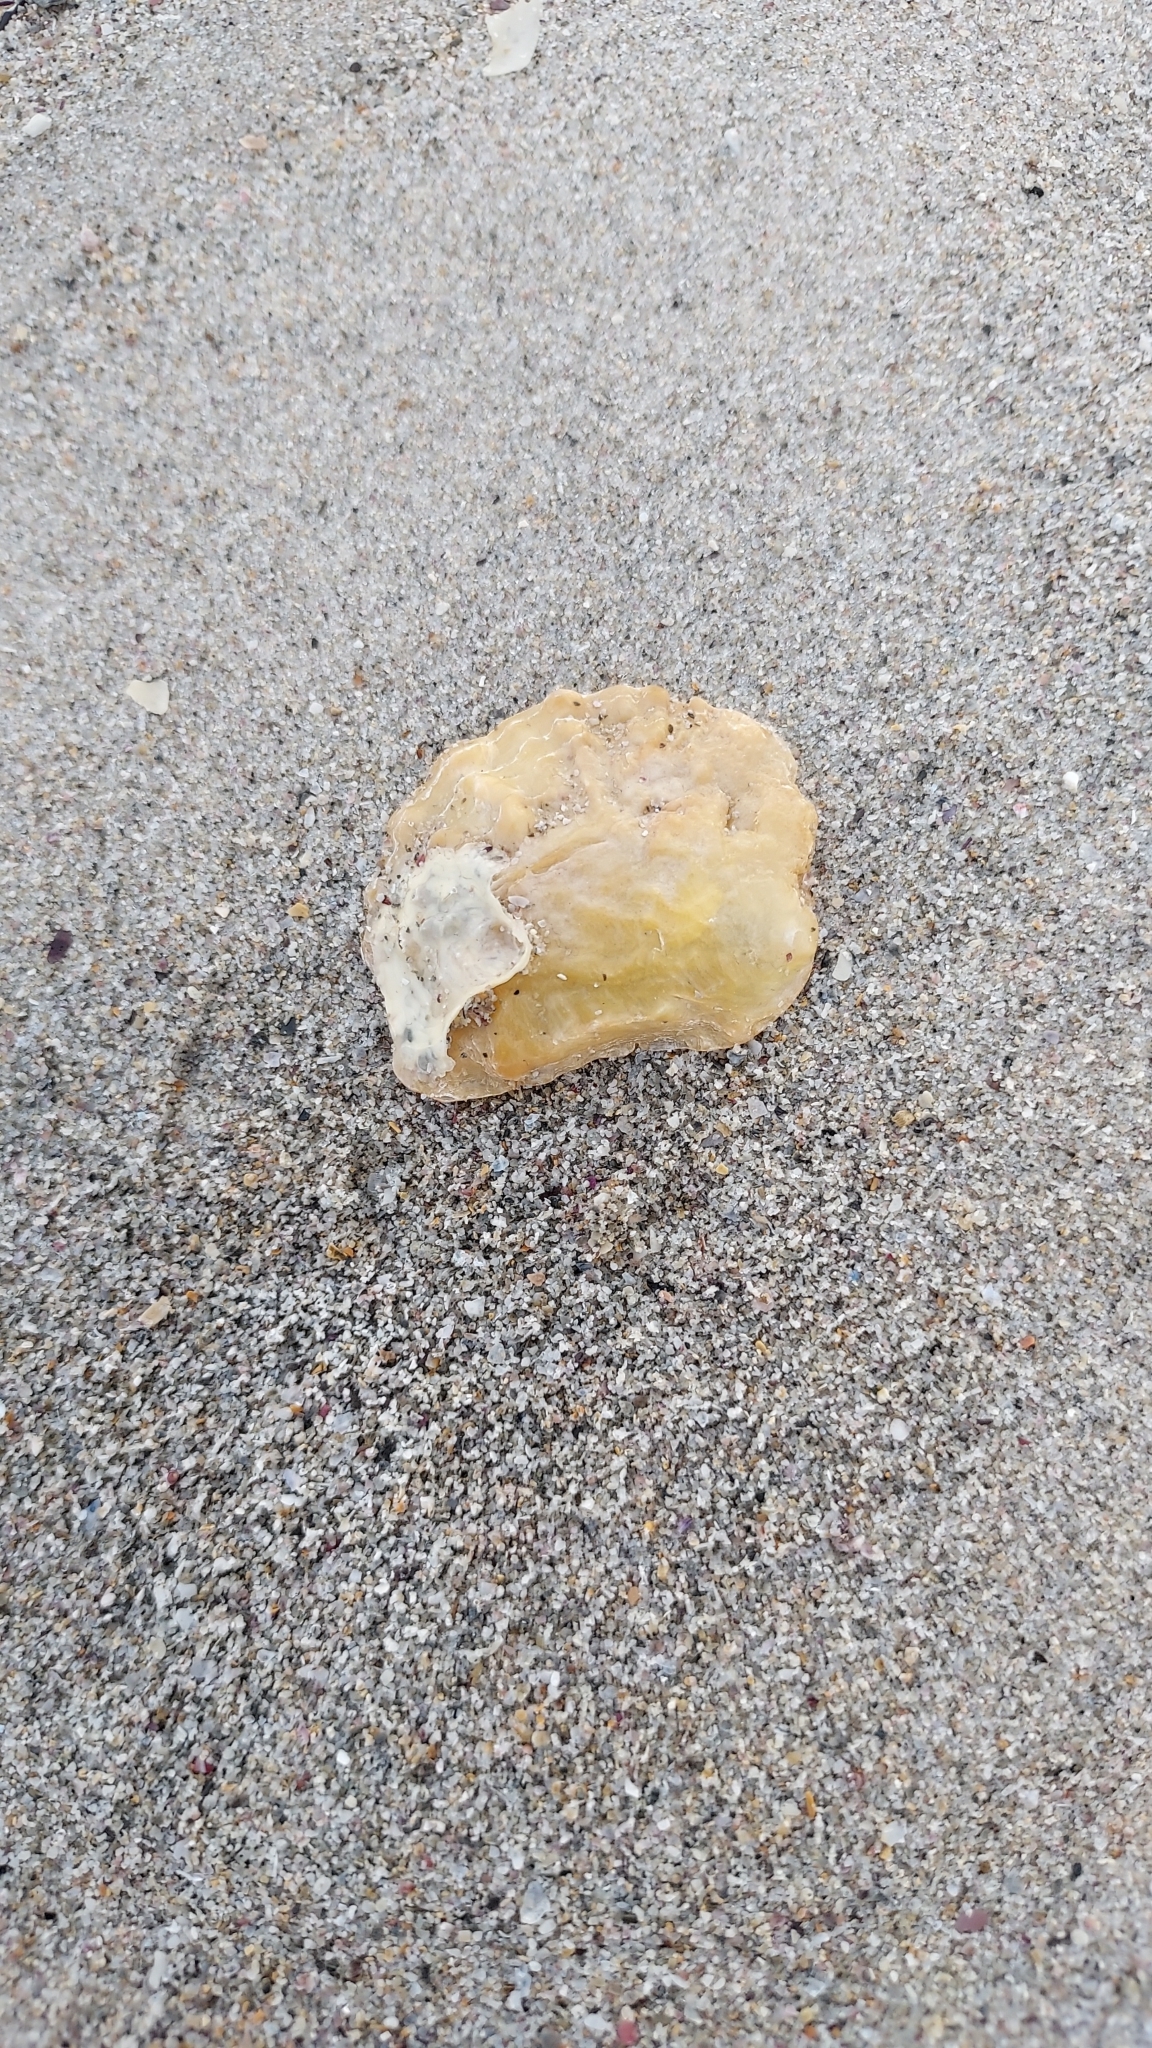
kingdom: Animalia
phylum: Mollusca
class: Bivalvia
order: Pectinida
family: Anomiidae
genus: Anomia
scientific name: Anomia trigonopsis
